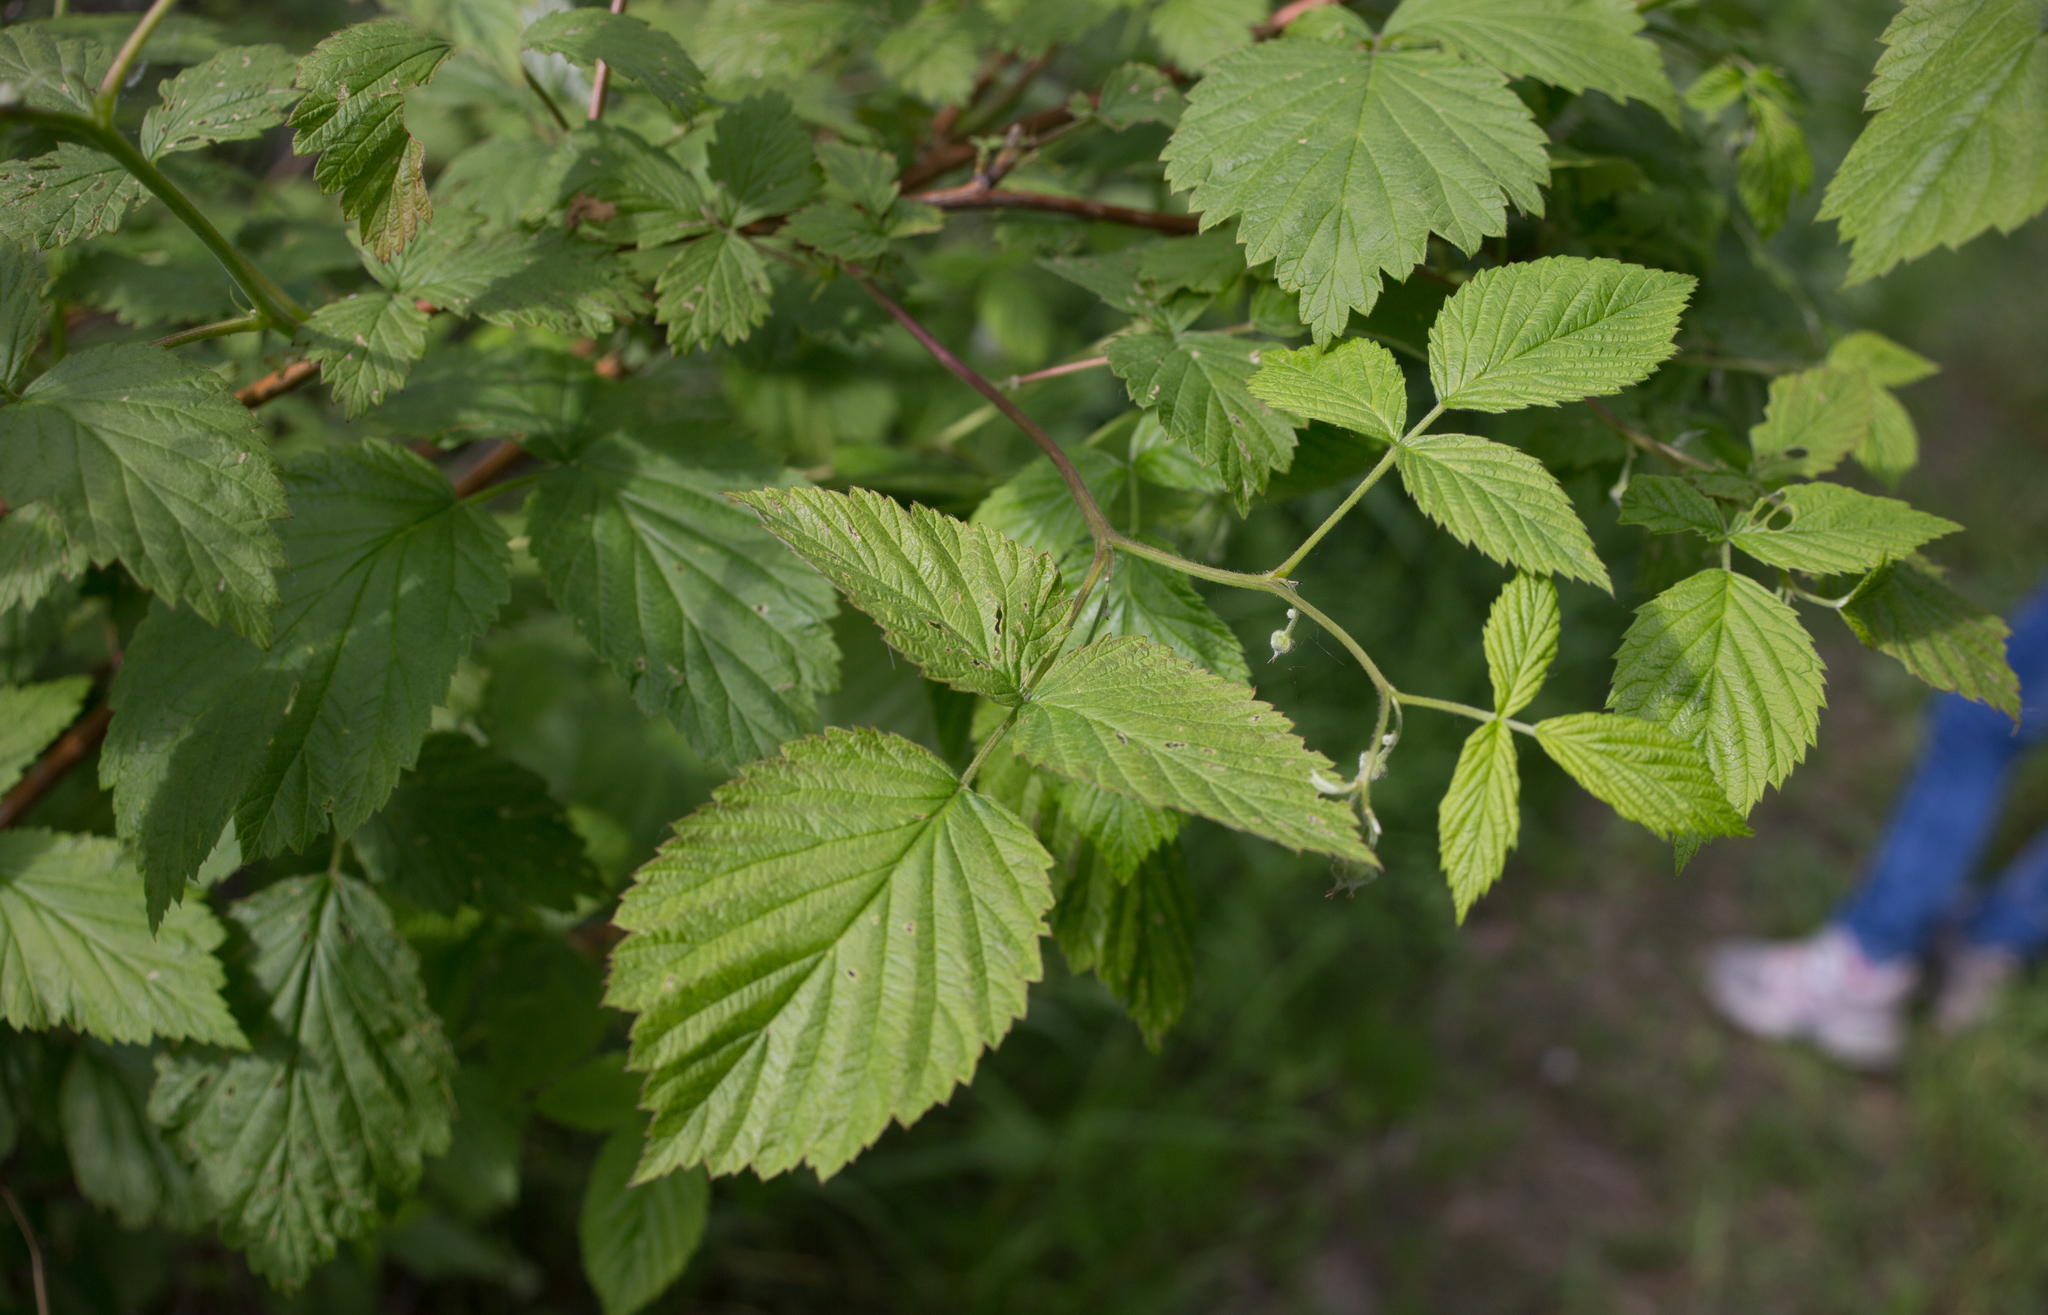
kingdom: Plantae
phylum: Tracheophyta
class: Magnoliopsida
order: Rosales
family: Rosaceae
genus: Rubus
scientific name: Rubus idaeus
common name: Raspberry
